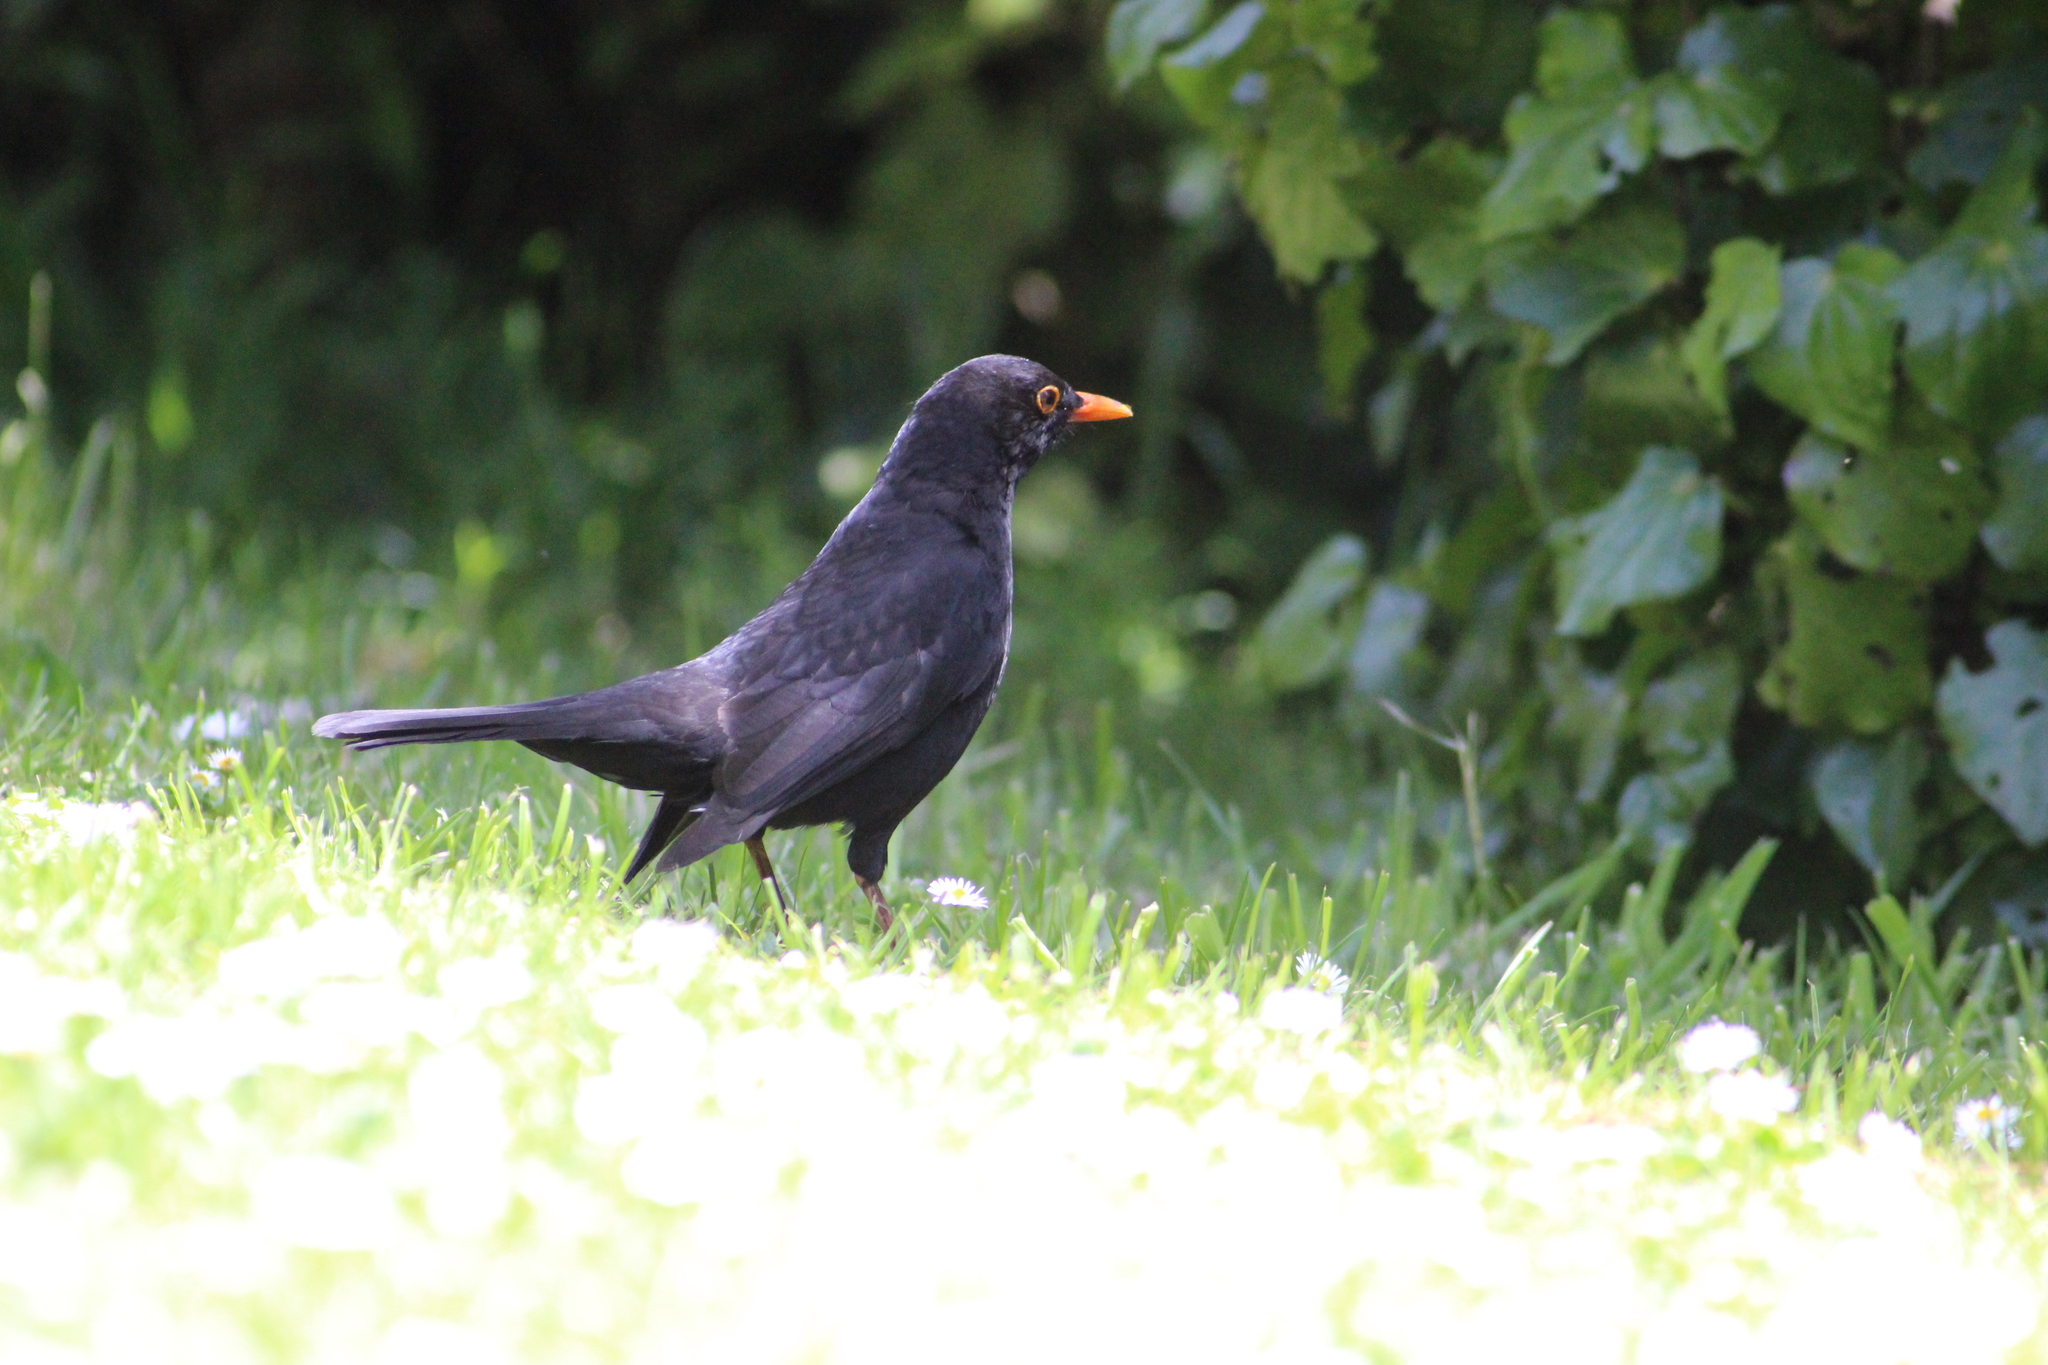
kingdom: Animalia
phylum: Chordata
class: Aves
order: Passeriformes
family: Turdidae
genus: Turdus
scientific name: Turdus merula
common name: Common blackbird
